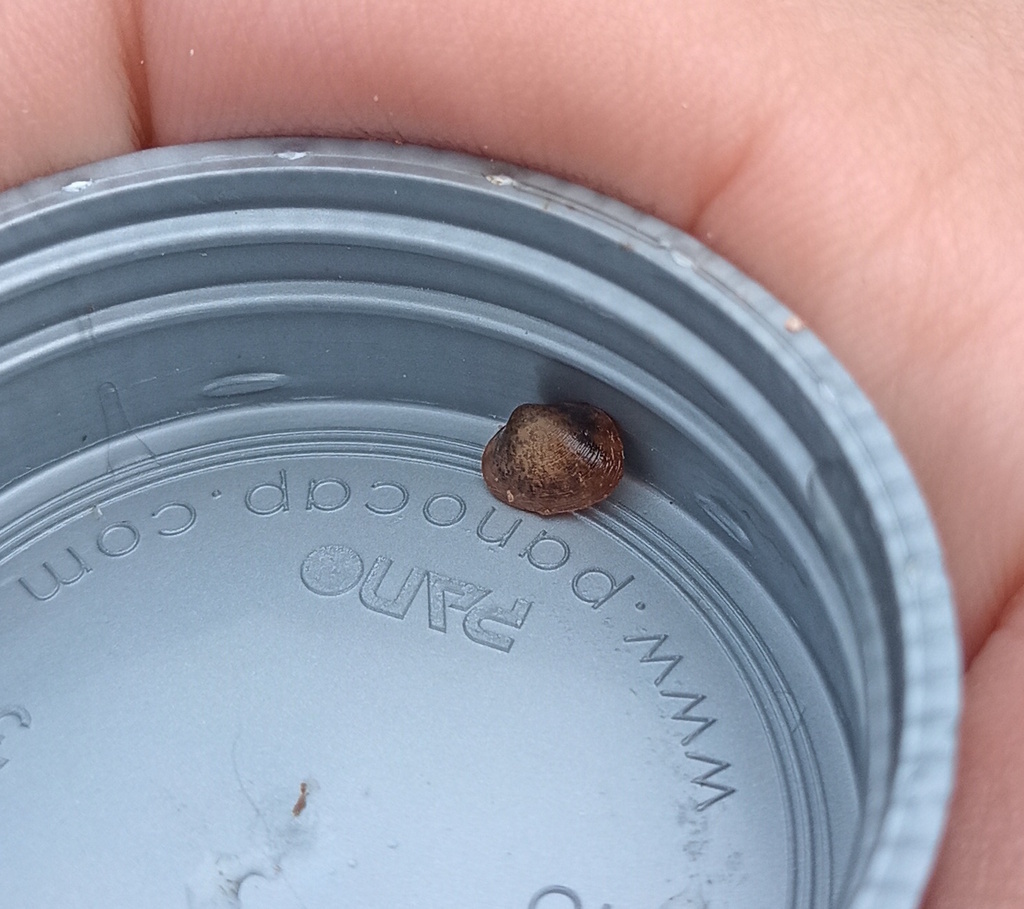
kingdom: Animalia
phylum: Mollusca
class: Bivalvia
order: Sphaeriida
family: Sphaeriidae
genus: Eupera
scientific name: Eupera klappenbachi
